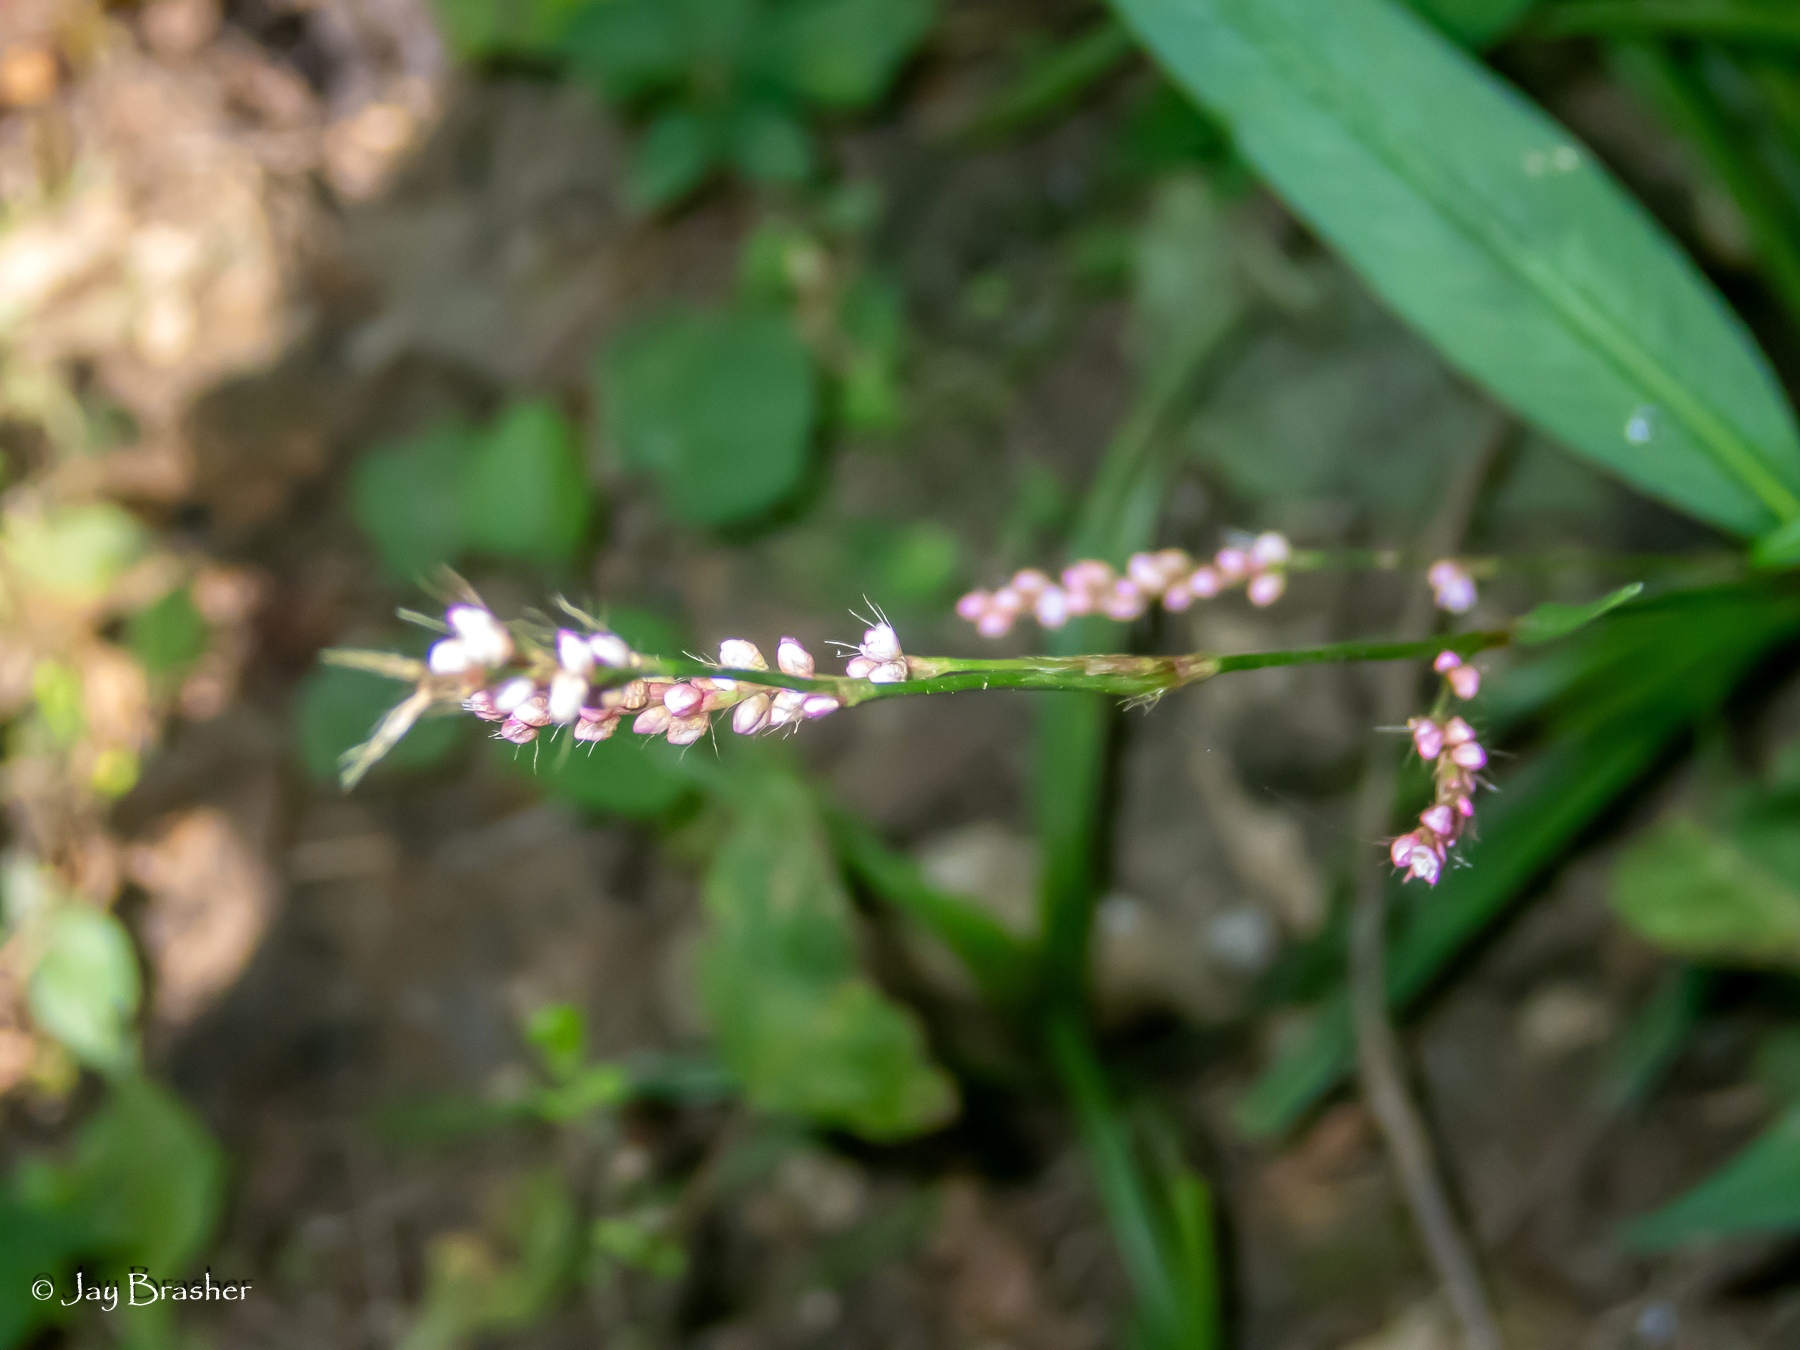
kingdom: Plantae
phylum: Tracheophyta
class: Magnoliopsida
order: Caryophyllales
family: Polygonaceae
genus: Persicaria
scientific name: Persicaria longiseta
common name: Bristly lady's-thumb
